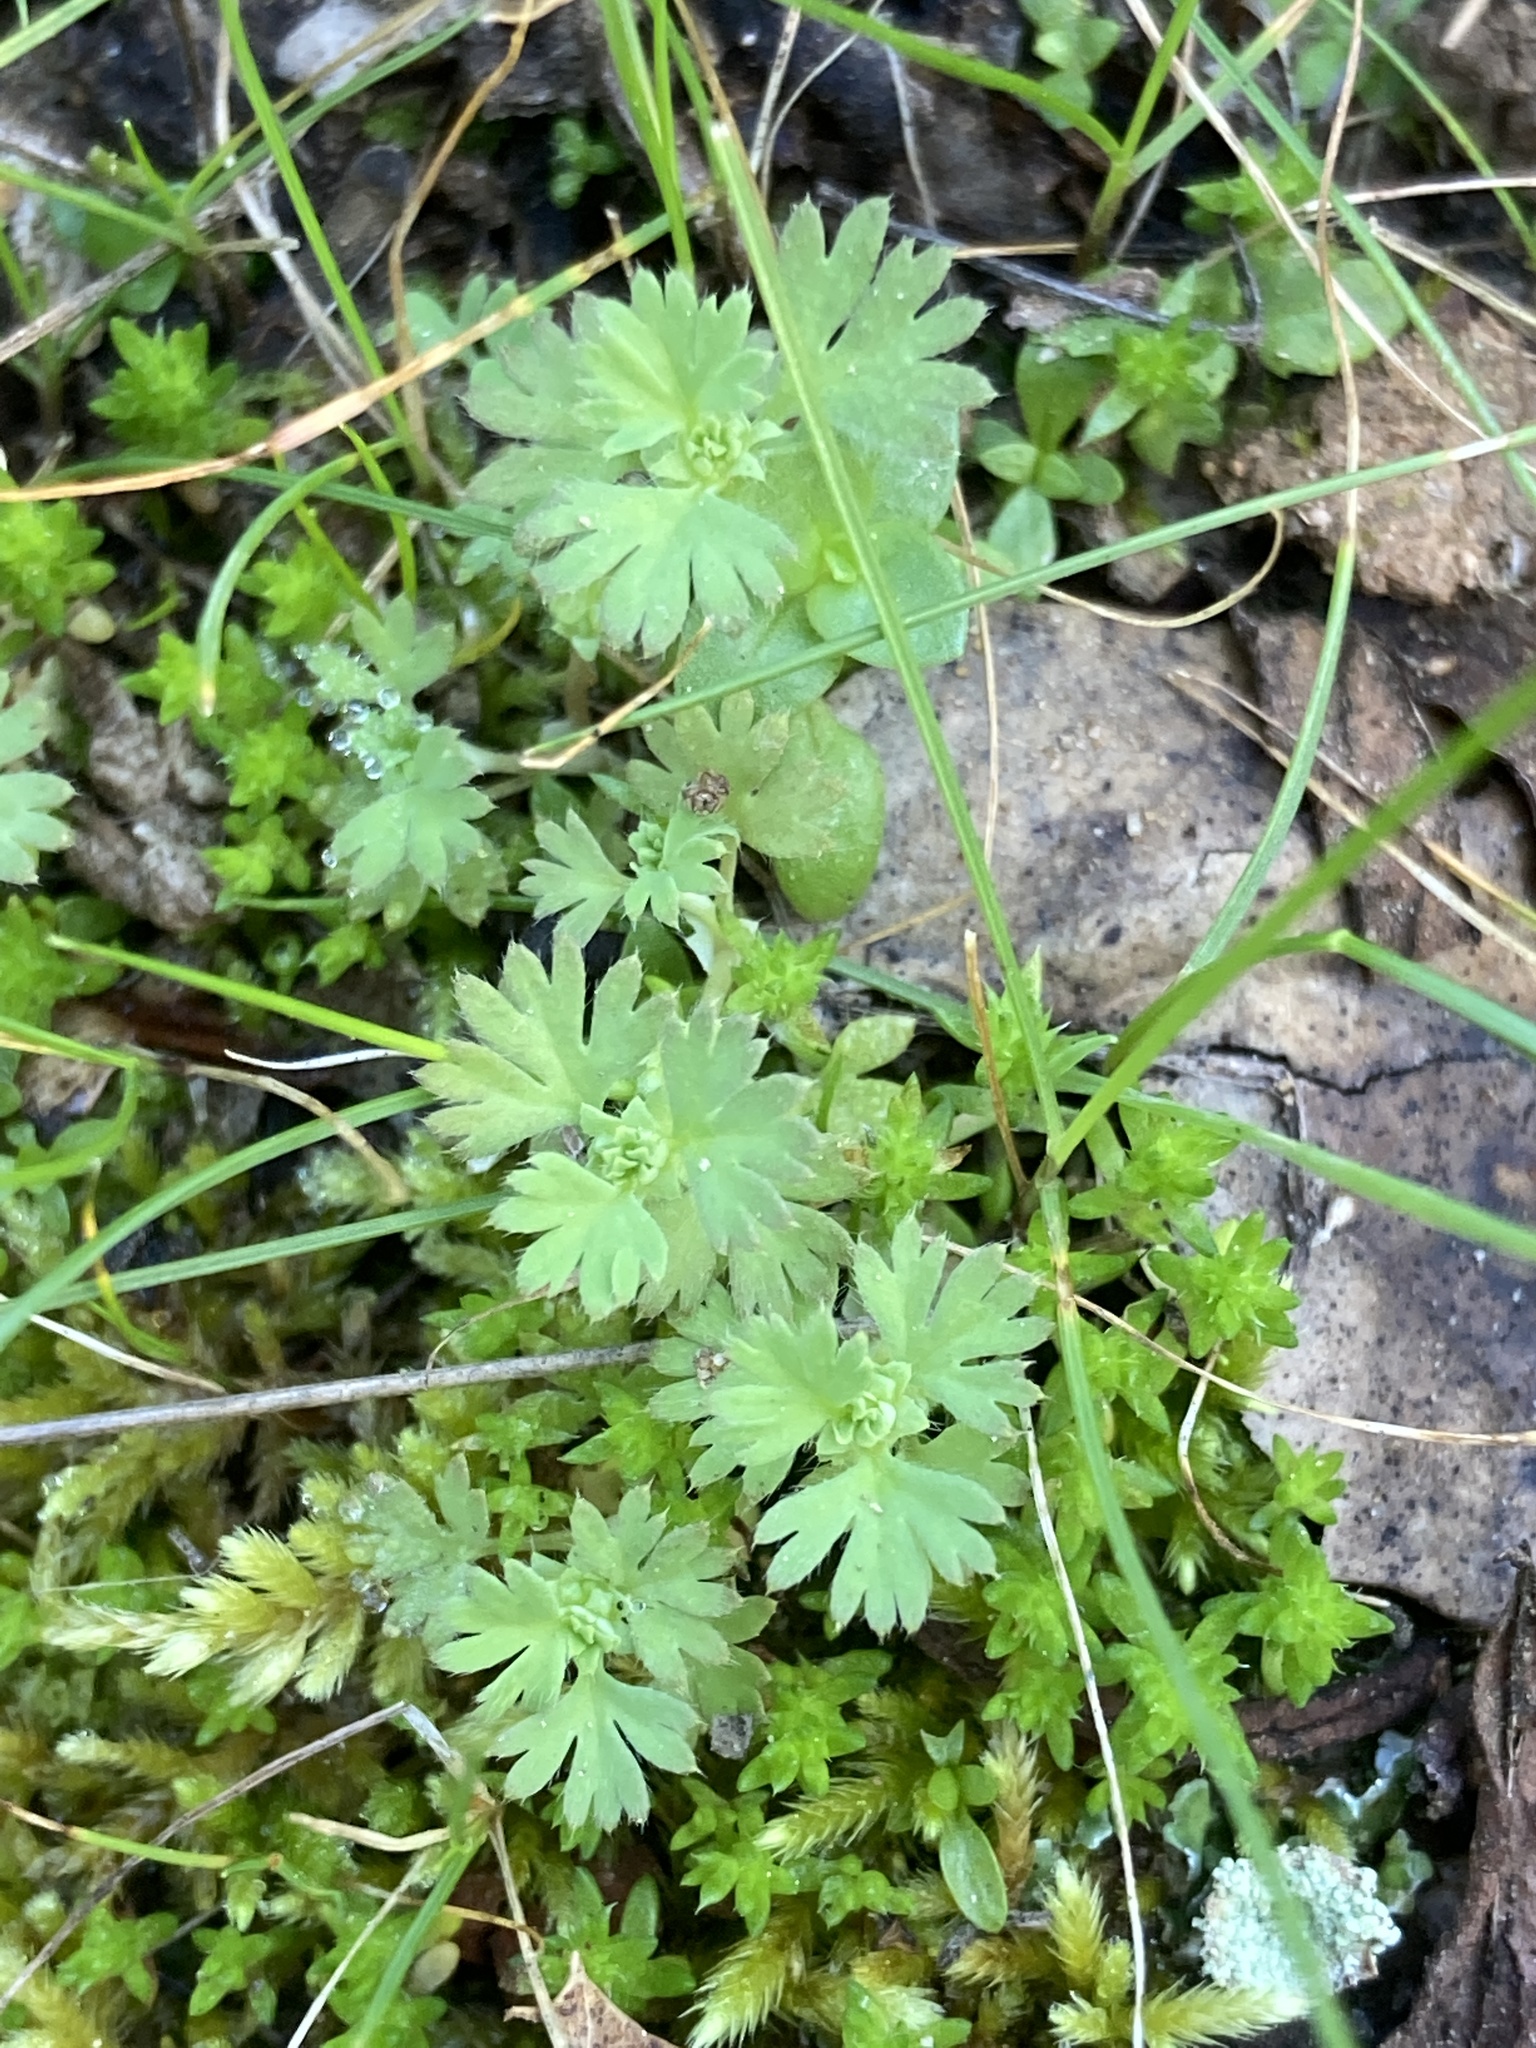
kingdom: Plantae
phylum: Tracheophyta
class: Magnoliopsida
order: Rosales
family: Rosaceae
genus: Aphanes
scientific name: Aphanes arvensis
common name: Parsley-piert
